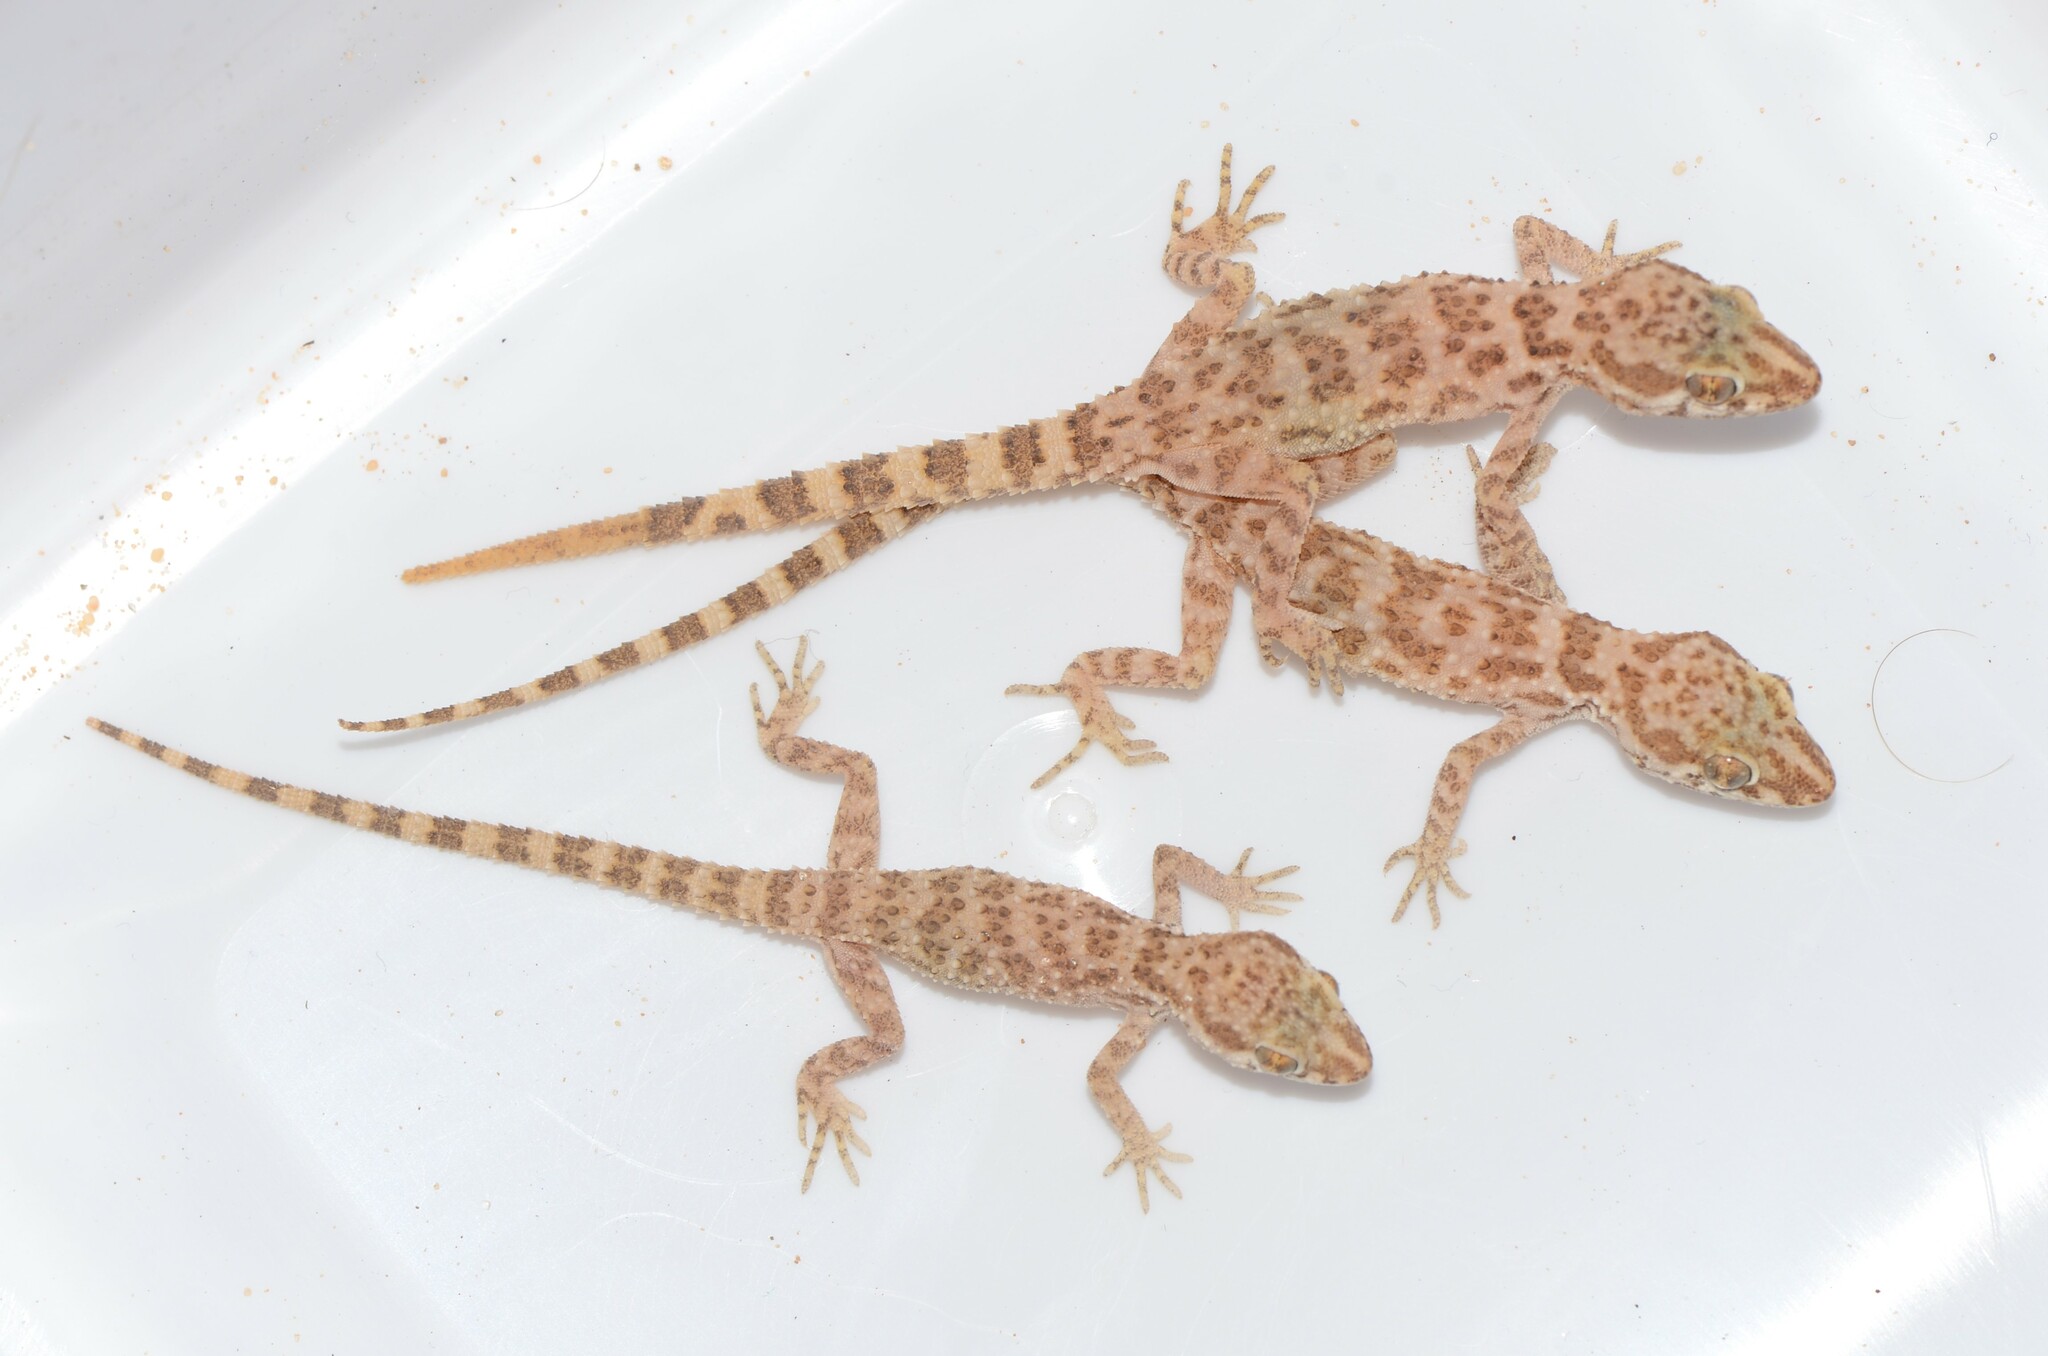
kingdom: Animalia
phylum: Chordata
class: Squamata
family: Gekkonidae
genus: Bunopus
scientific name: Bunopus tuberculatus
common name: Southern tuberculated gecko
